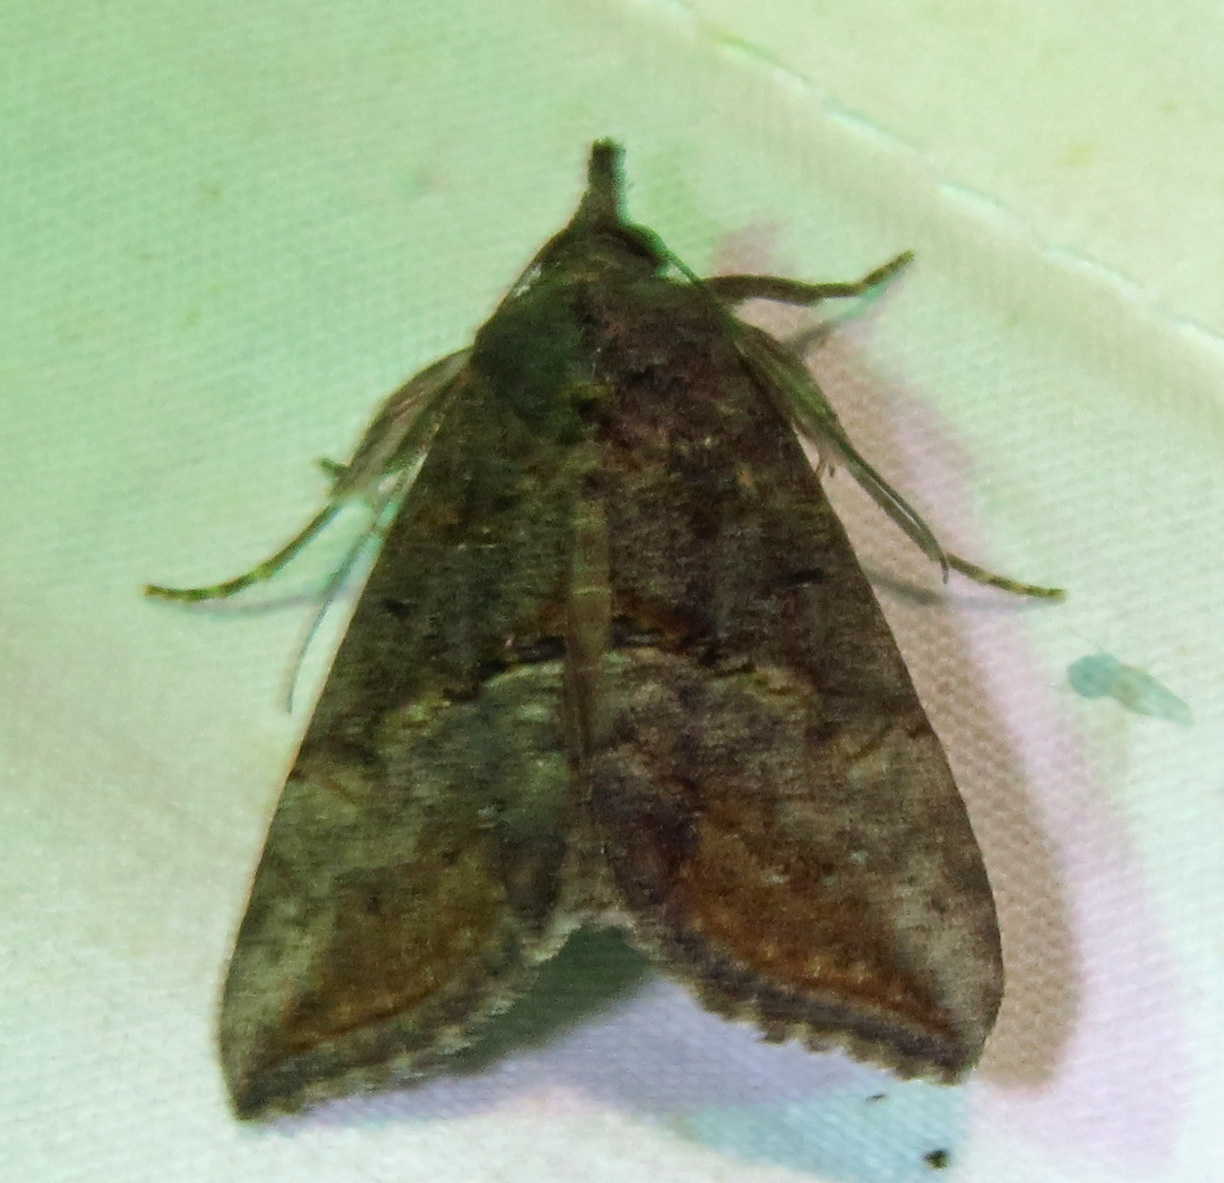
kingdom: Animalia
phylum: Arthropoda
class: Insecta
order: Lepidoptera
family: Erebidae
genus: Hypena
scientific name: Hypena scabra
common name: Green cloverworm
